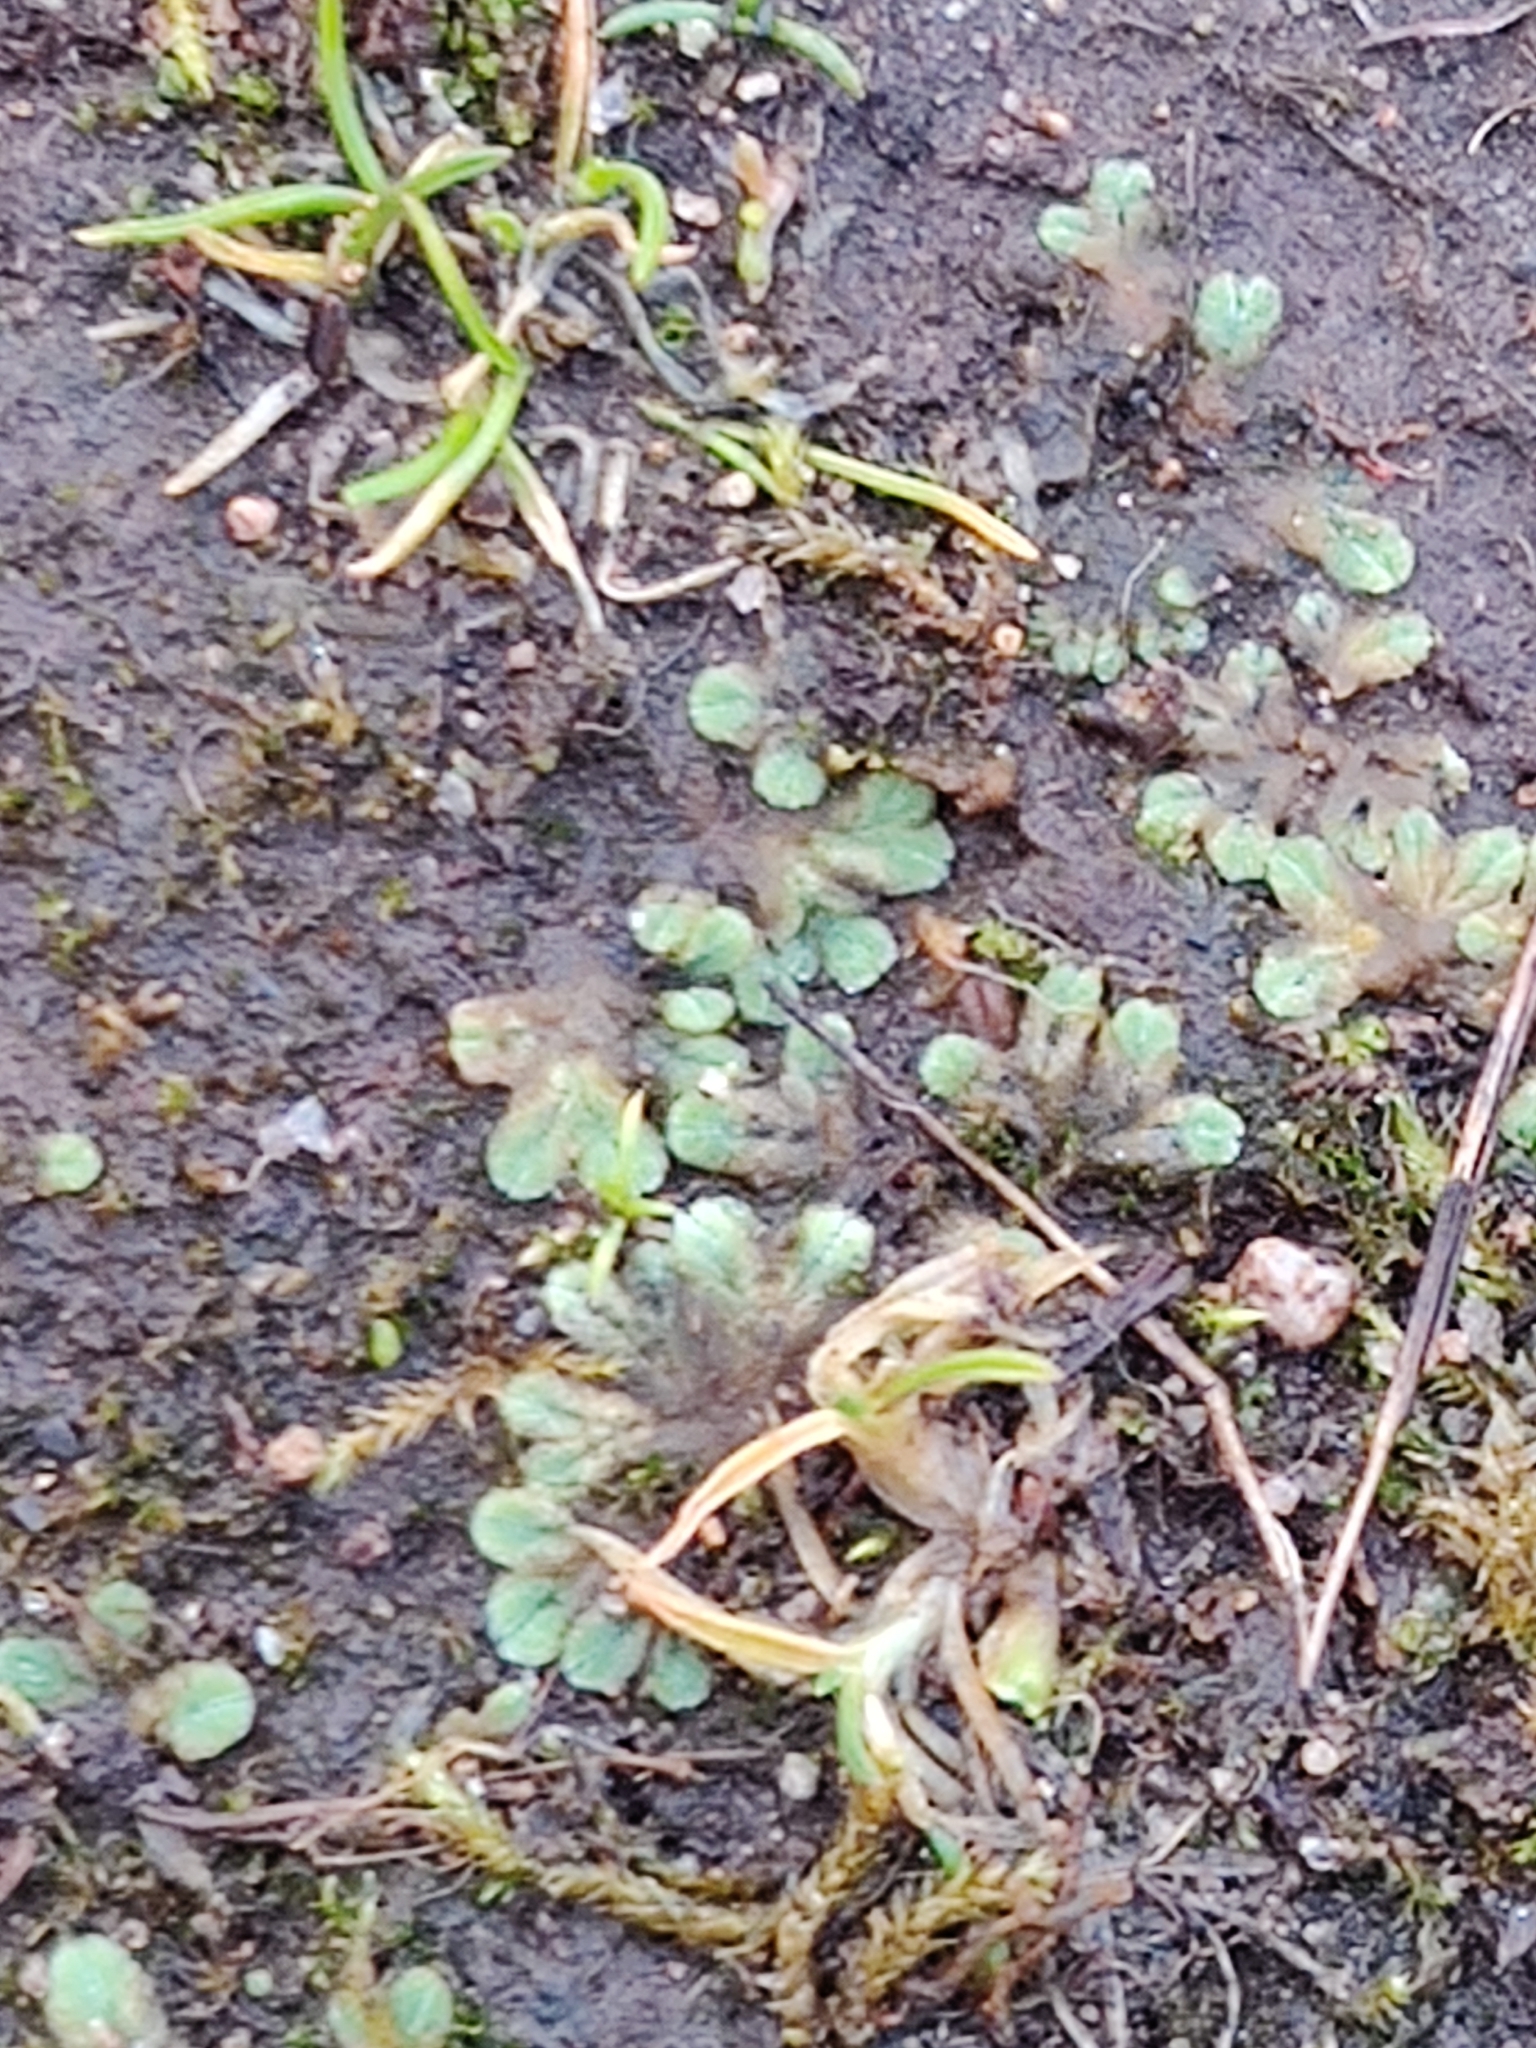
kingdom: Plantae
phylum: Marchantiophyta
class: Marchantiopsida
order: Marchantiales
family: Ricciaceae
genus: Riccia
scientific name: Riccia sorocarpa
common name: Common crystalwort
